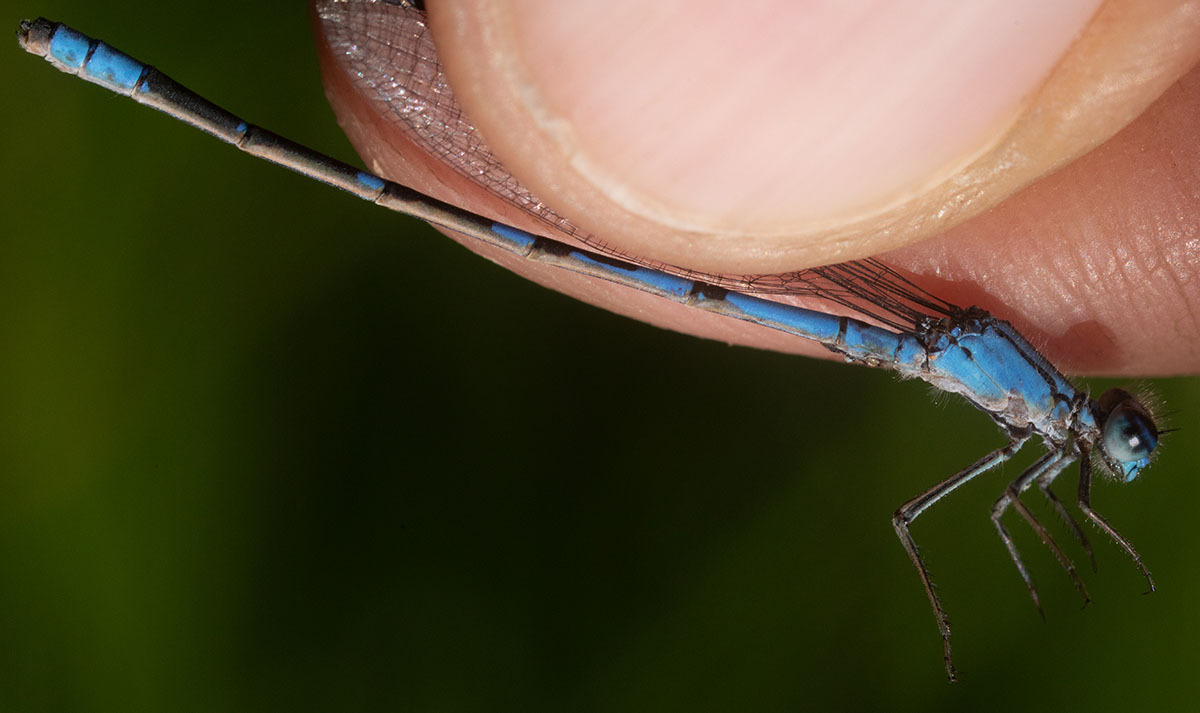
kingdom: Animalia
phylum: Arthropoda
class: Insecta
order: Odonata
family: Coenagrionidae
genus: Enallagma
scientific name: Enallagma praevarum
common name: Arroyo bluet
